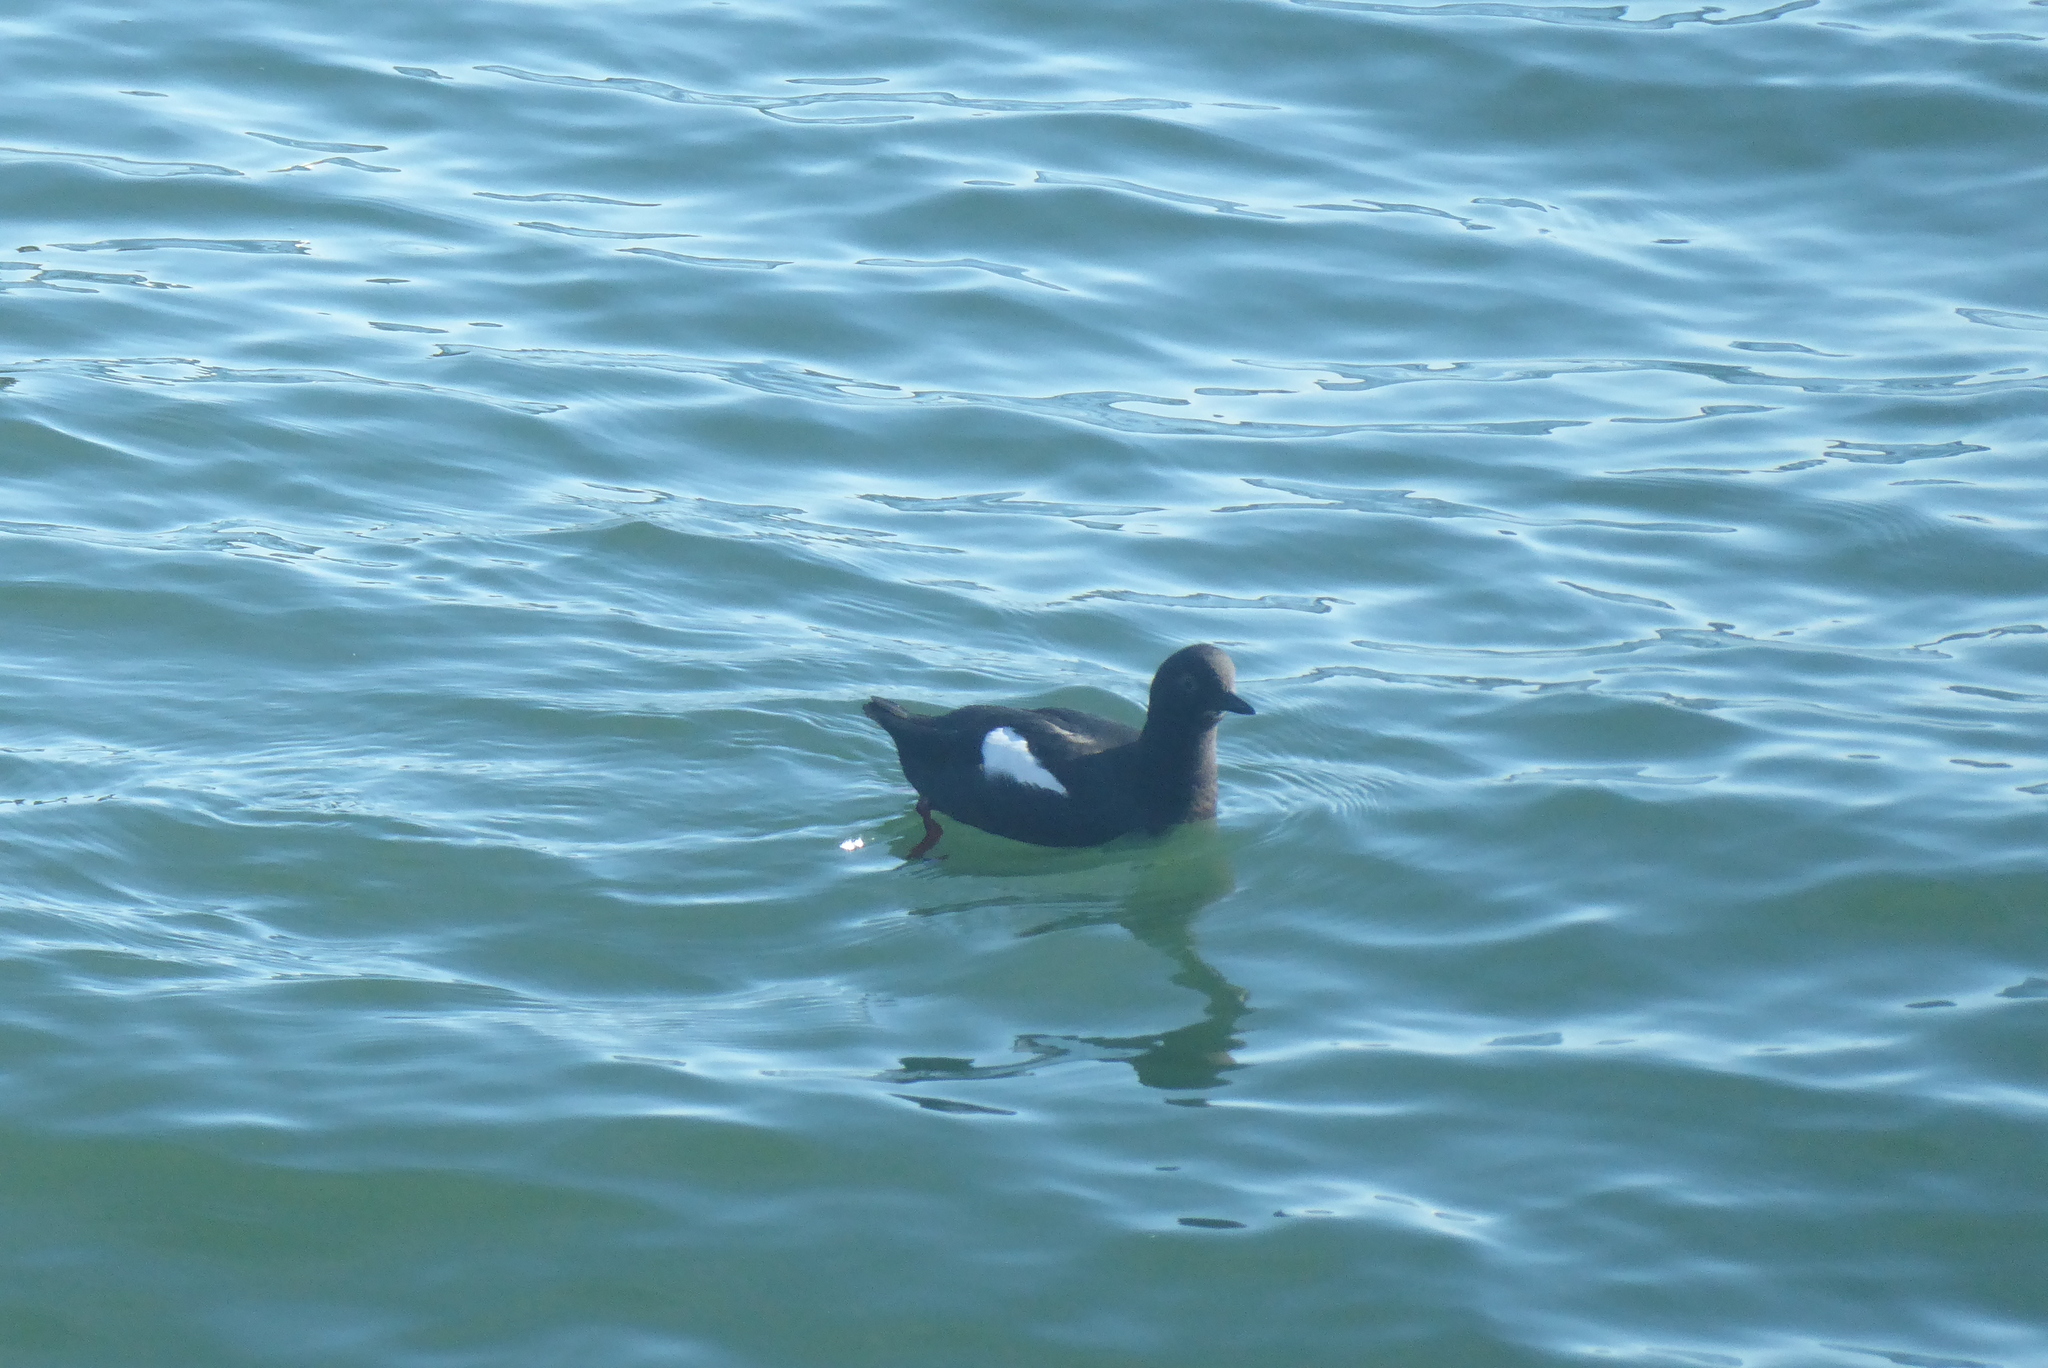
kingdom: Animalia
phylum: Chordata
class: Aves
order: Charadriiformes
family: Alcidae
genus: Cepphus
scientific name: Cepphus columba
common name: Pigeon guillemot
